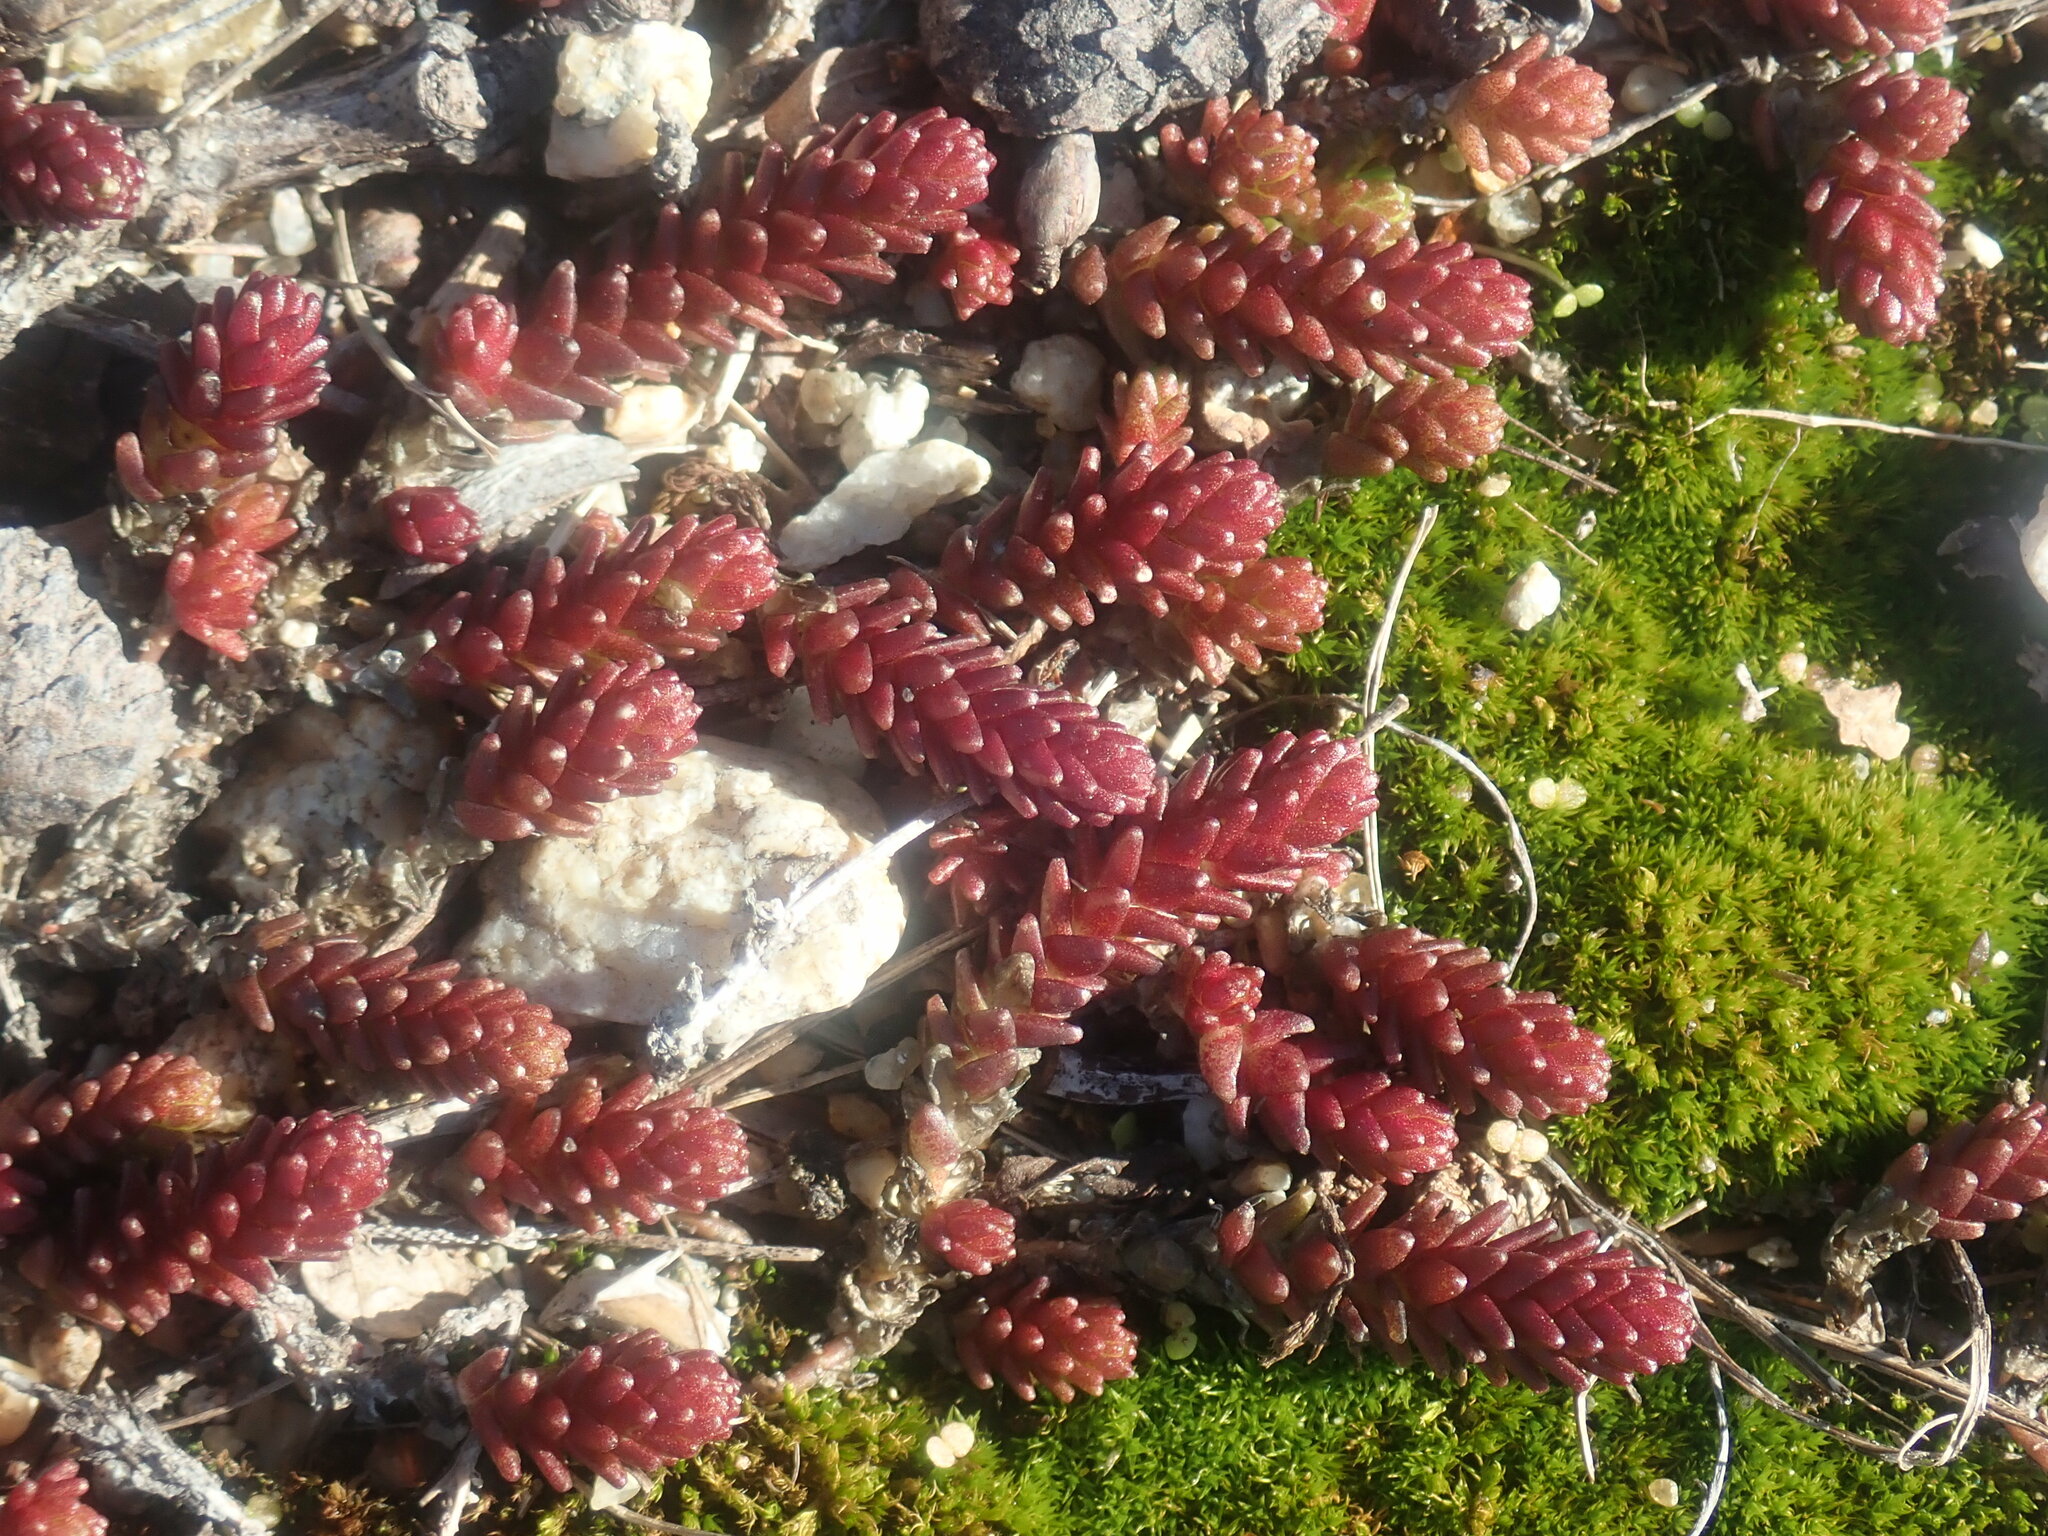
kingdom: Plantae
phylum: Tracheophyta
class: Magnoliopsida
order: Saxifragales
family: Crassulaceae
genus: Sedum
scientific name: Sedum acre
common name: Biting stonecrop
